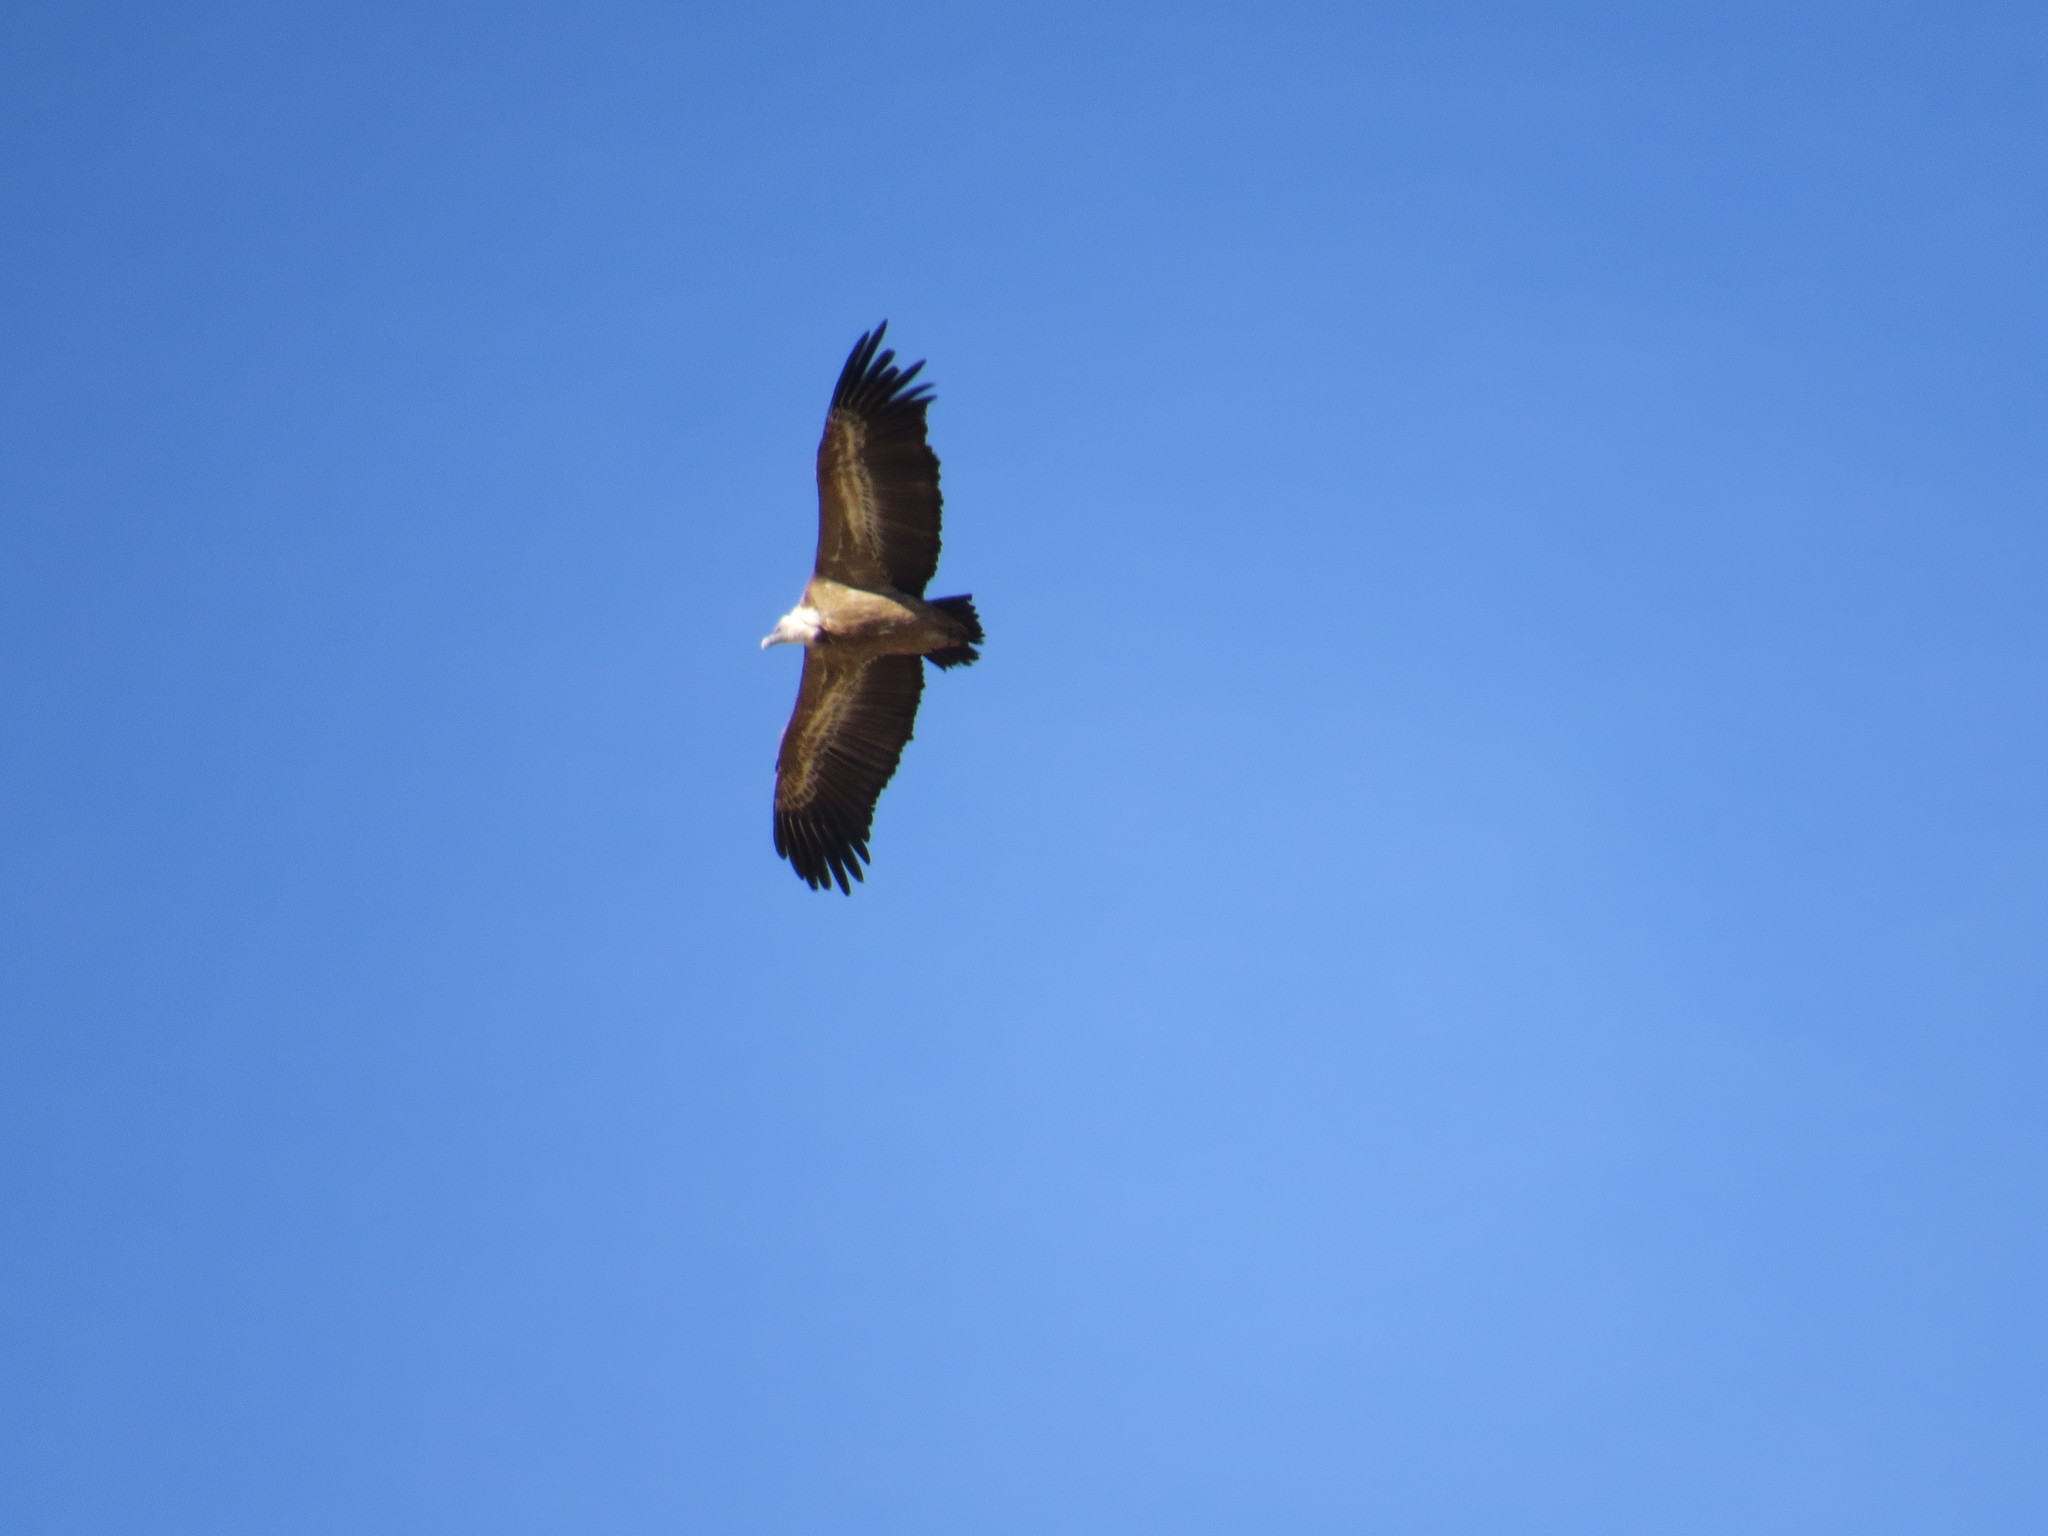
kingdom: Animalia
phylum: Chordata
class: Aves
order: Accipitriformes
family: Accipitridae
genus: Gyps
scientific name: Gyps fulvus
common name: Griffon vulture
